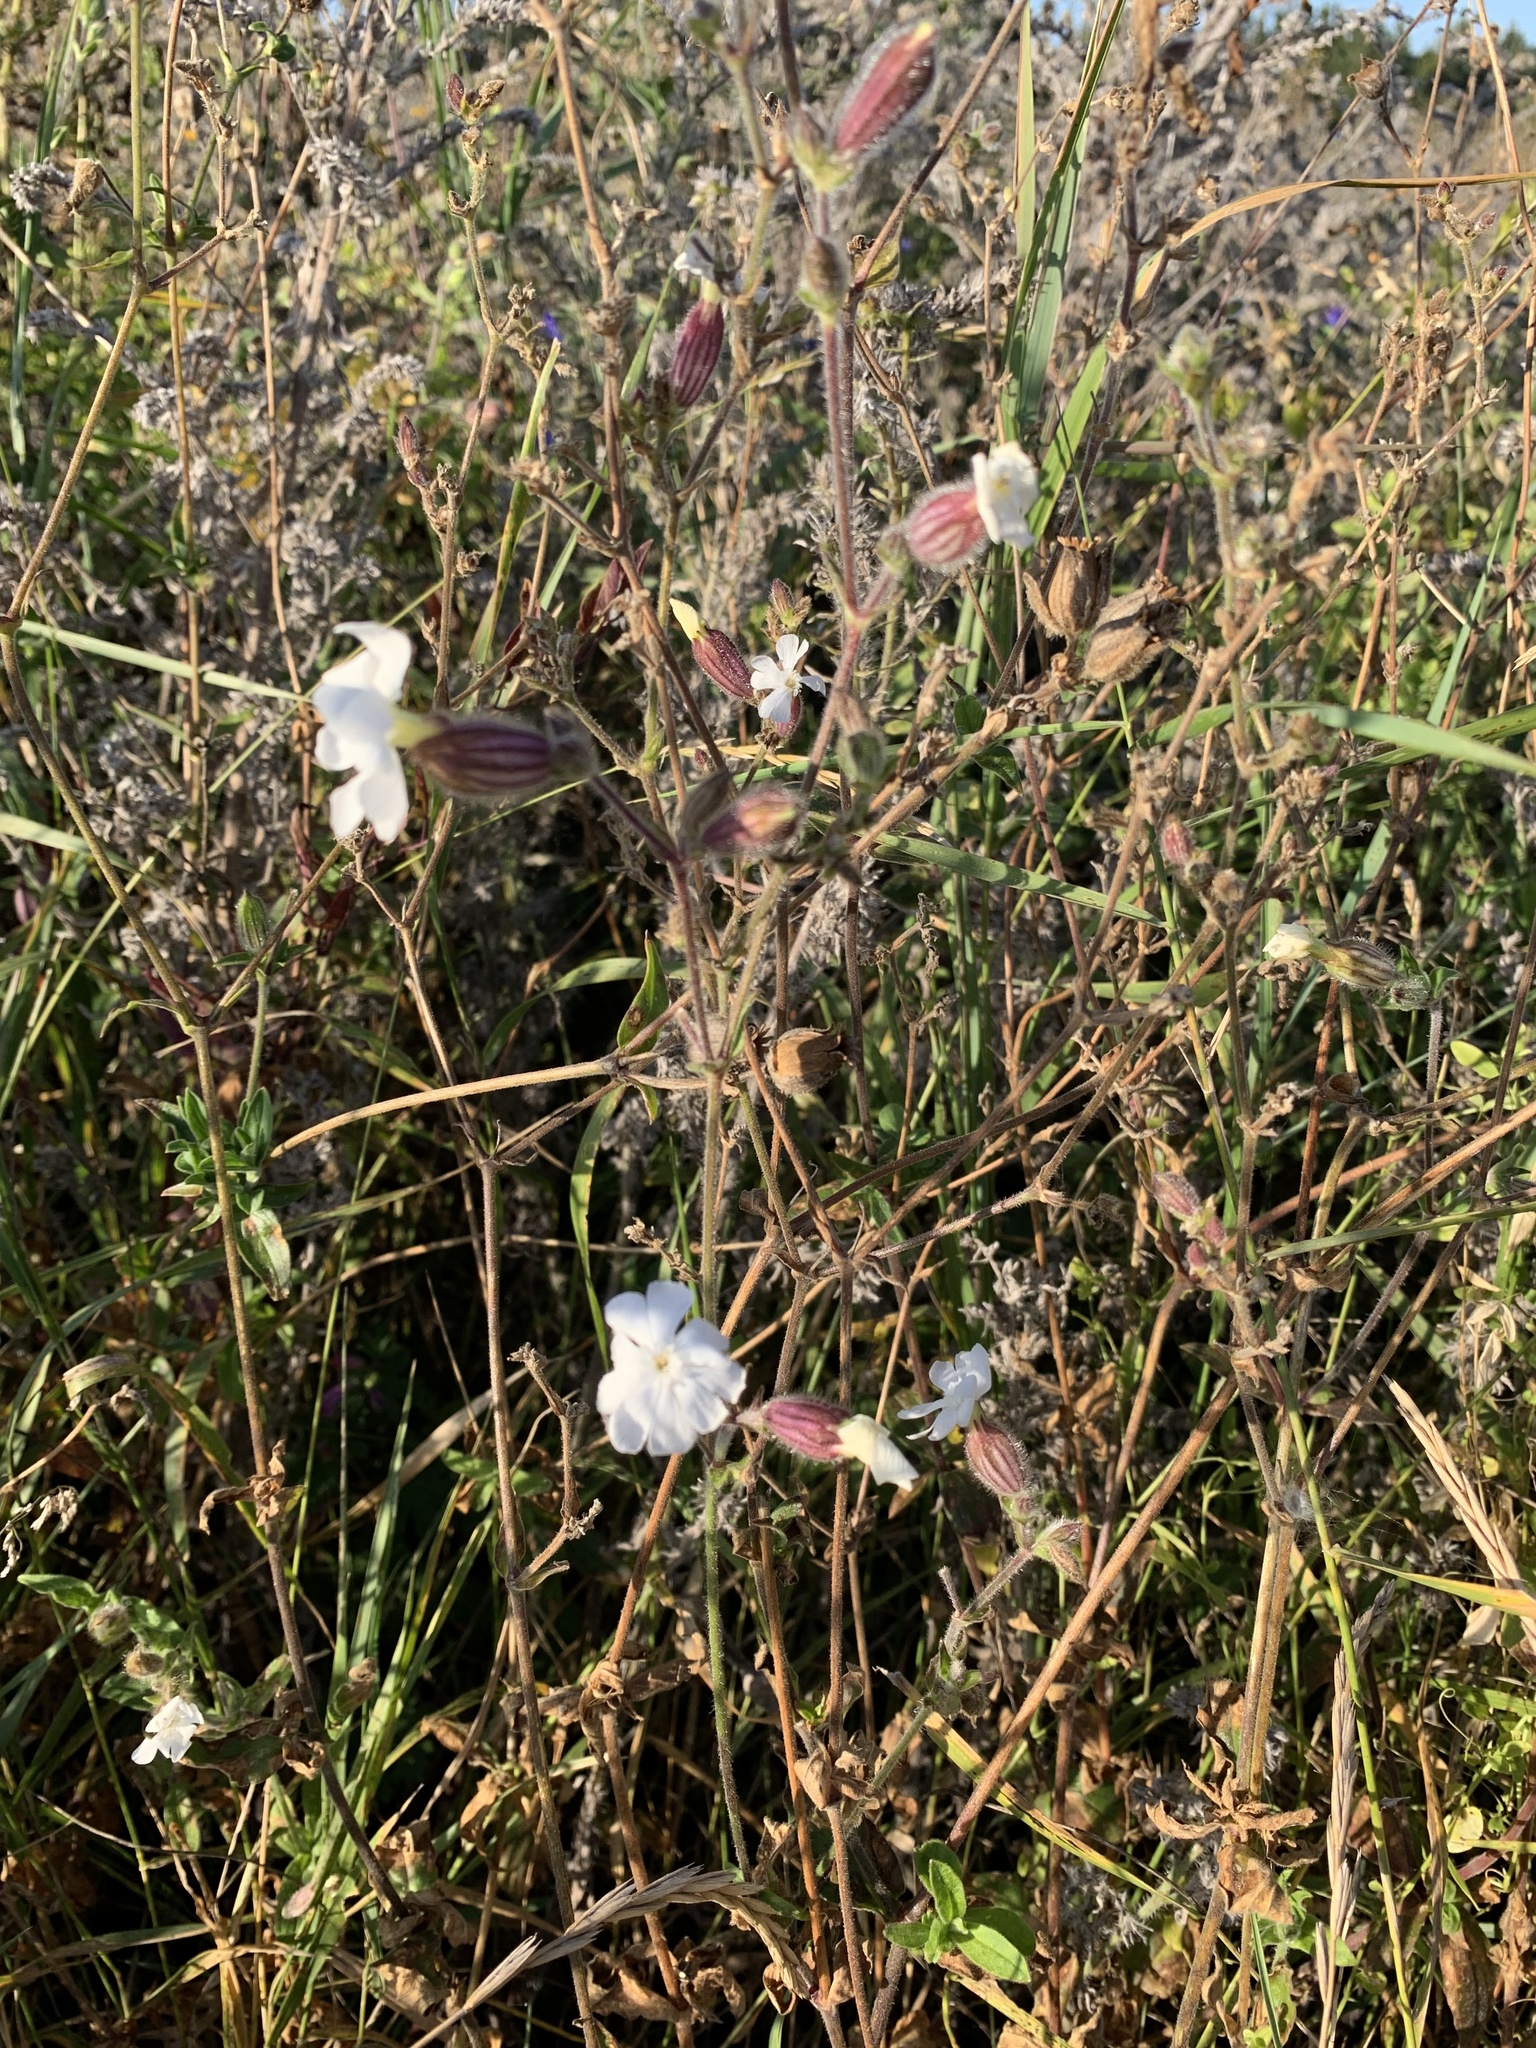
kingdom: Plantae
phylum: Tracheophyta
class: Magnoliopsida
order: Caryophyllales
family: Caryophyllaceae
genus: Silene
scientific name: Silene latifolia
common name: White campion
